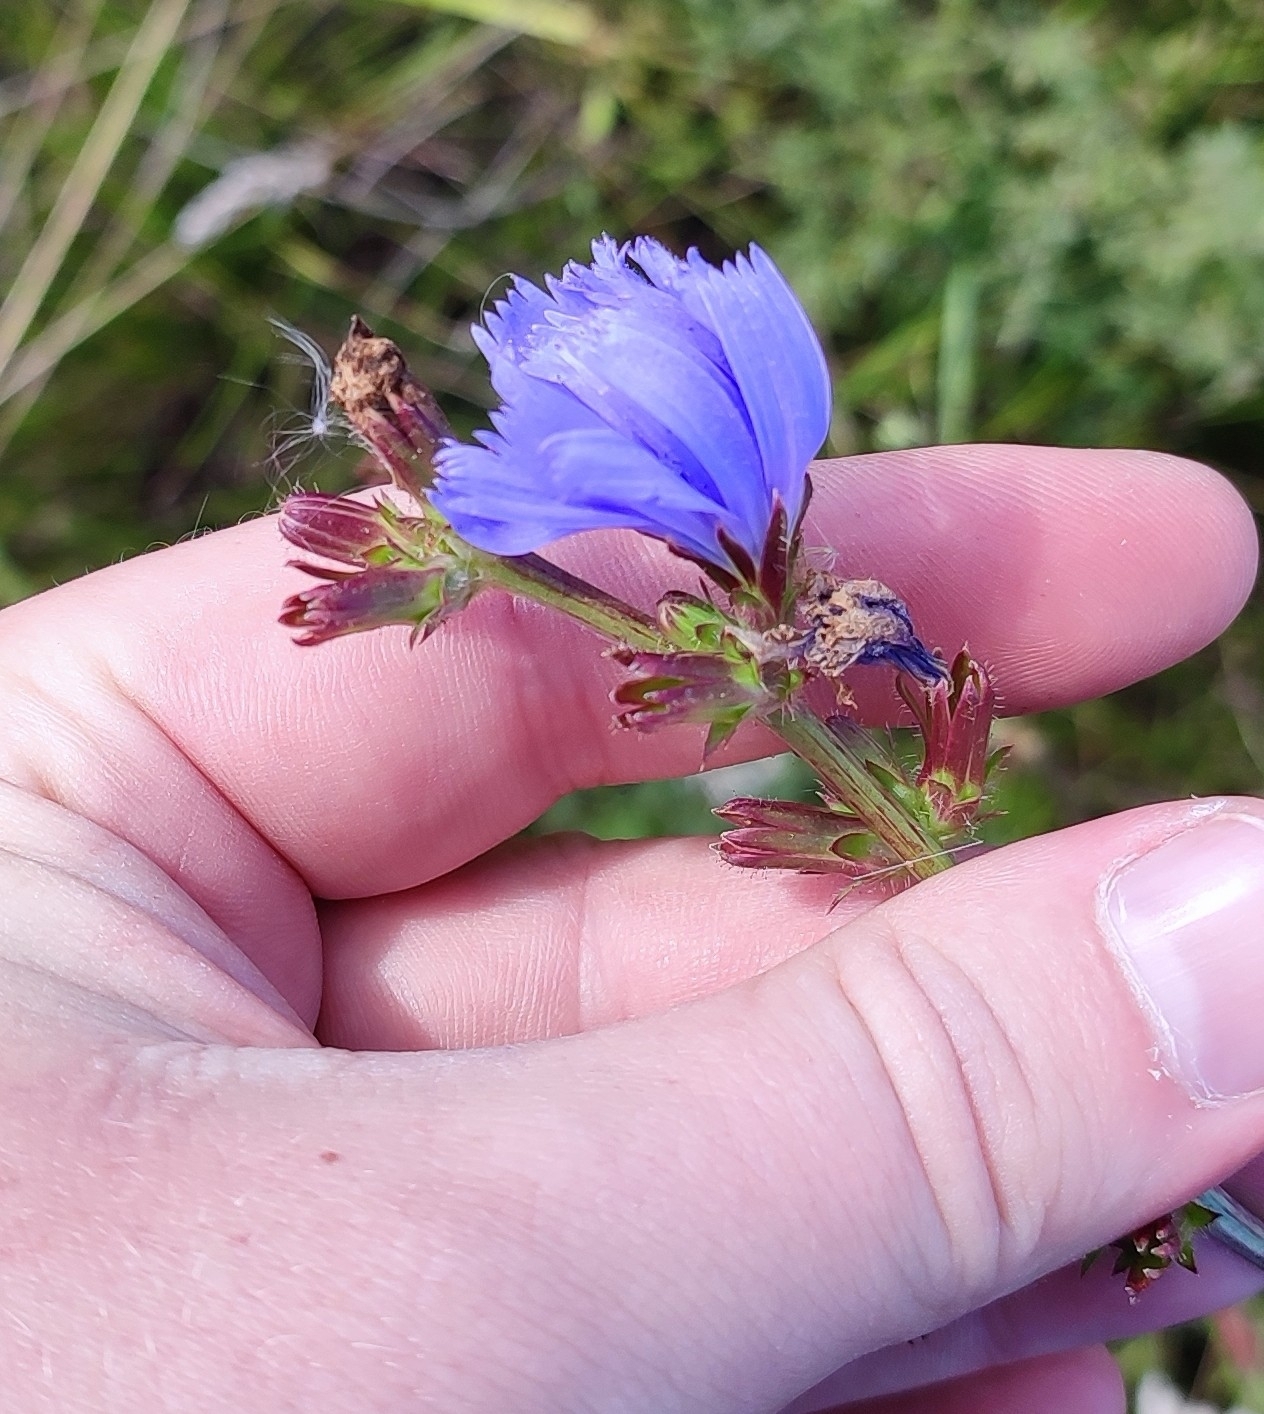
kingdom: Plantae
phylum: Tracheophyta
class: Magnoliopsida
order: Asterales
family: Asteraceae
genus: Cichorium
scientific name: Cichorium intybus
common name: Chicory
